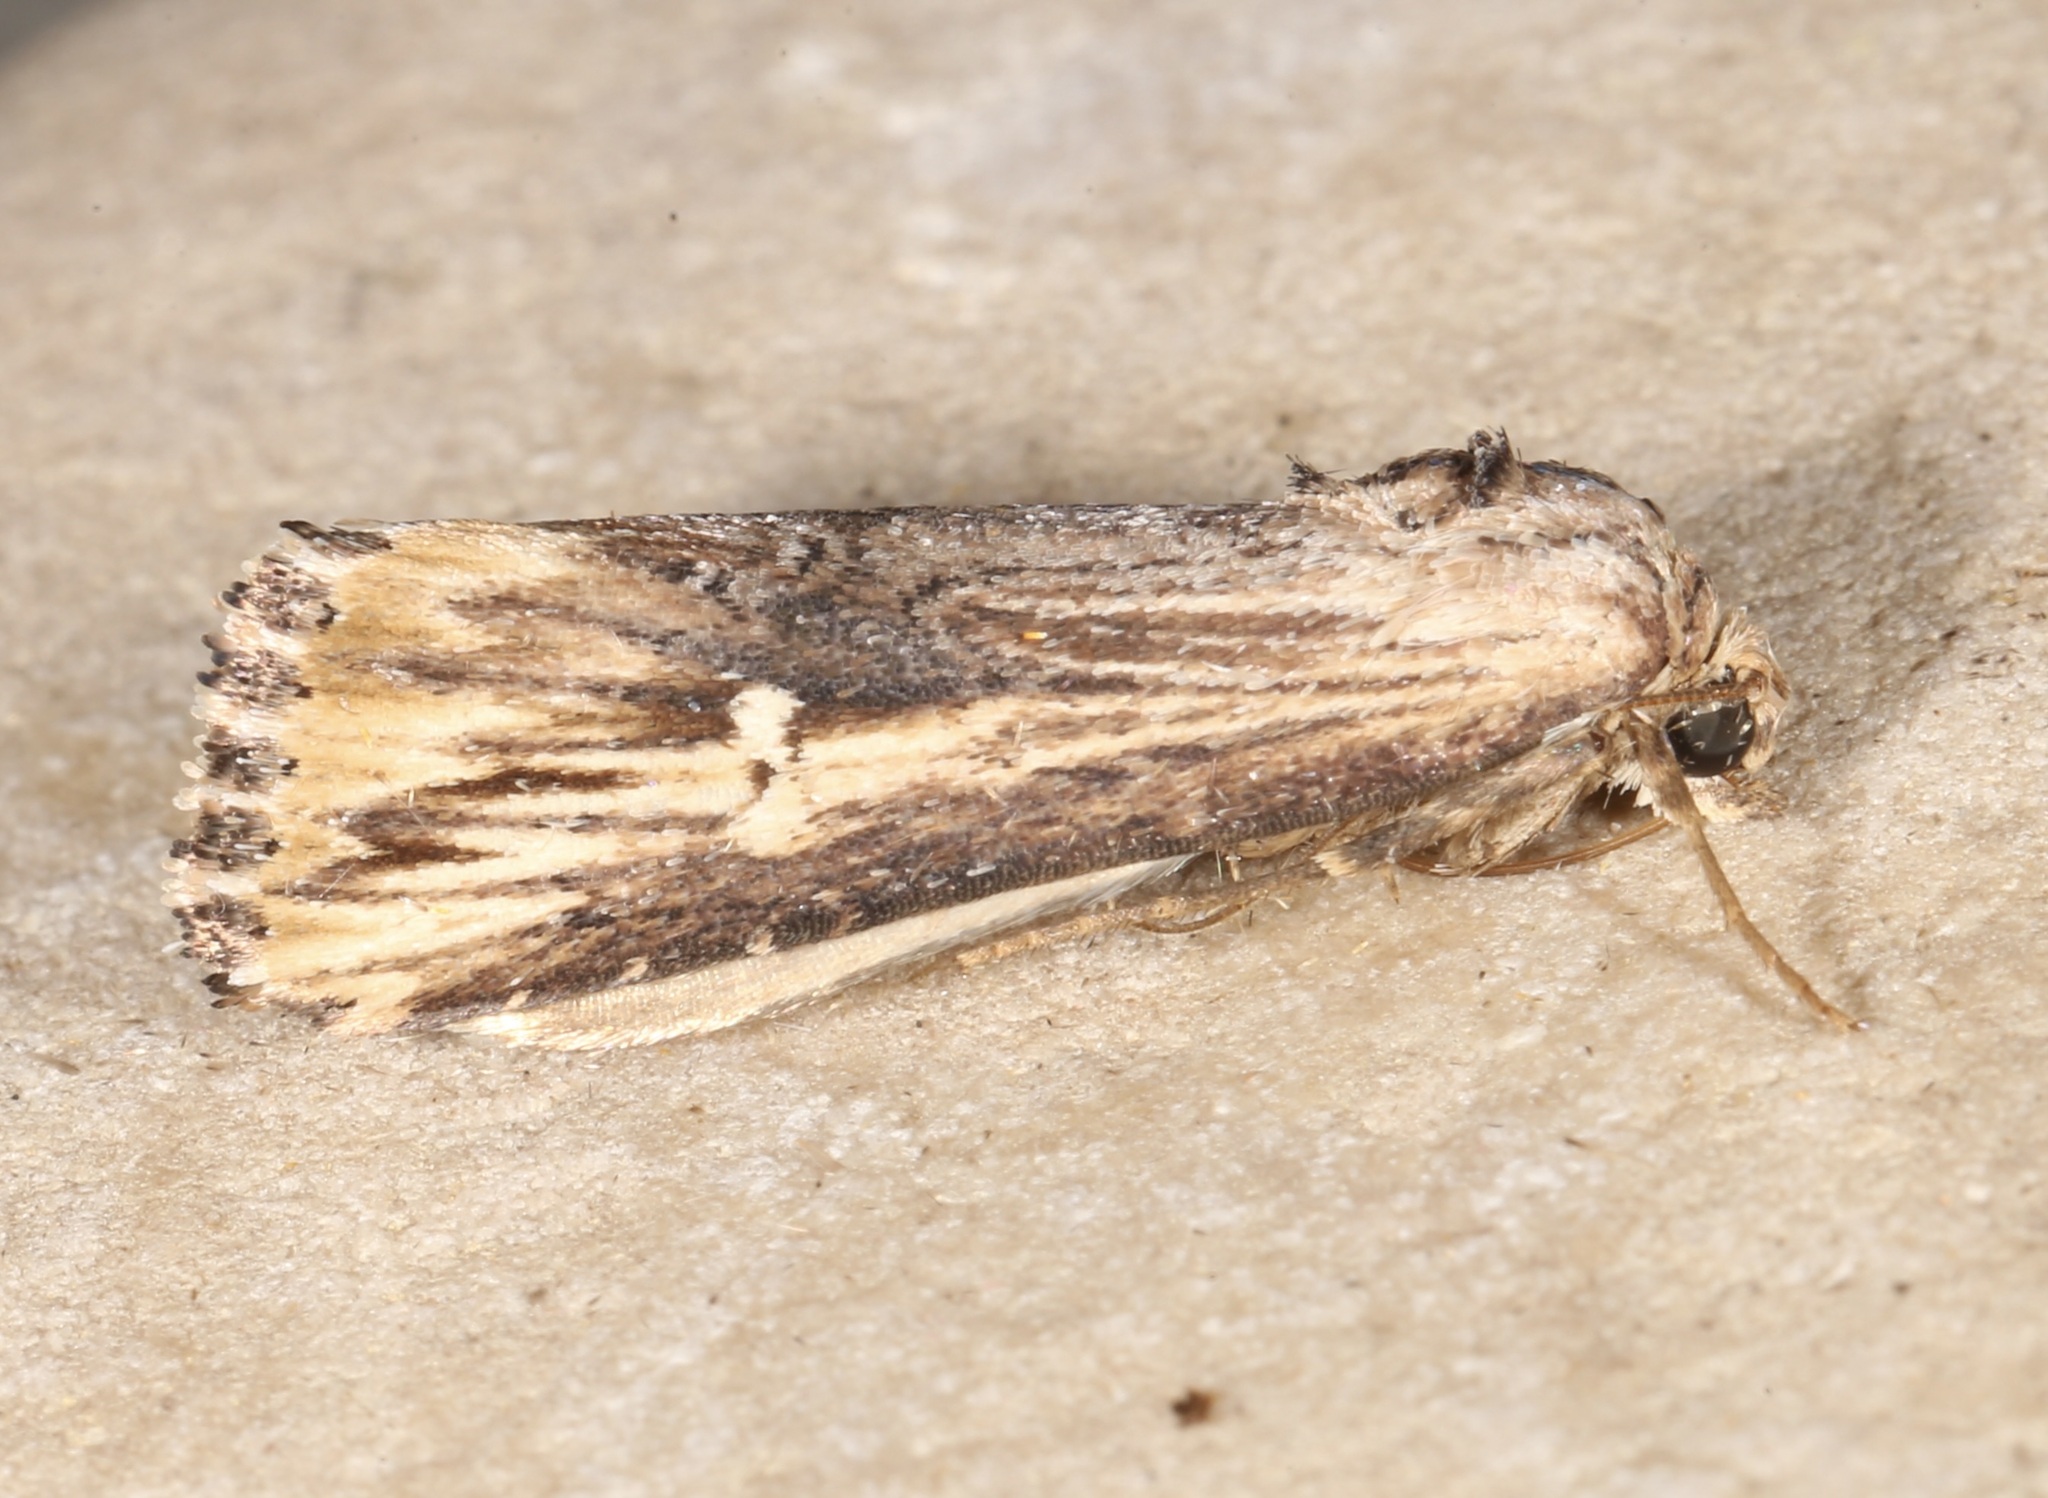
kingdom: Animalia
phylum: Arthropoda
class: Insecta
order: Lepidoptera
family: Noctuidae
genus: Crambodes
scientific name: Crambodes talidiformis
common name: Verbena moth
